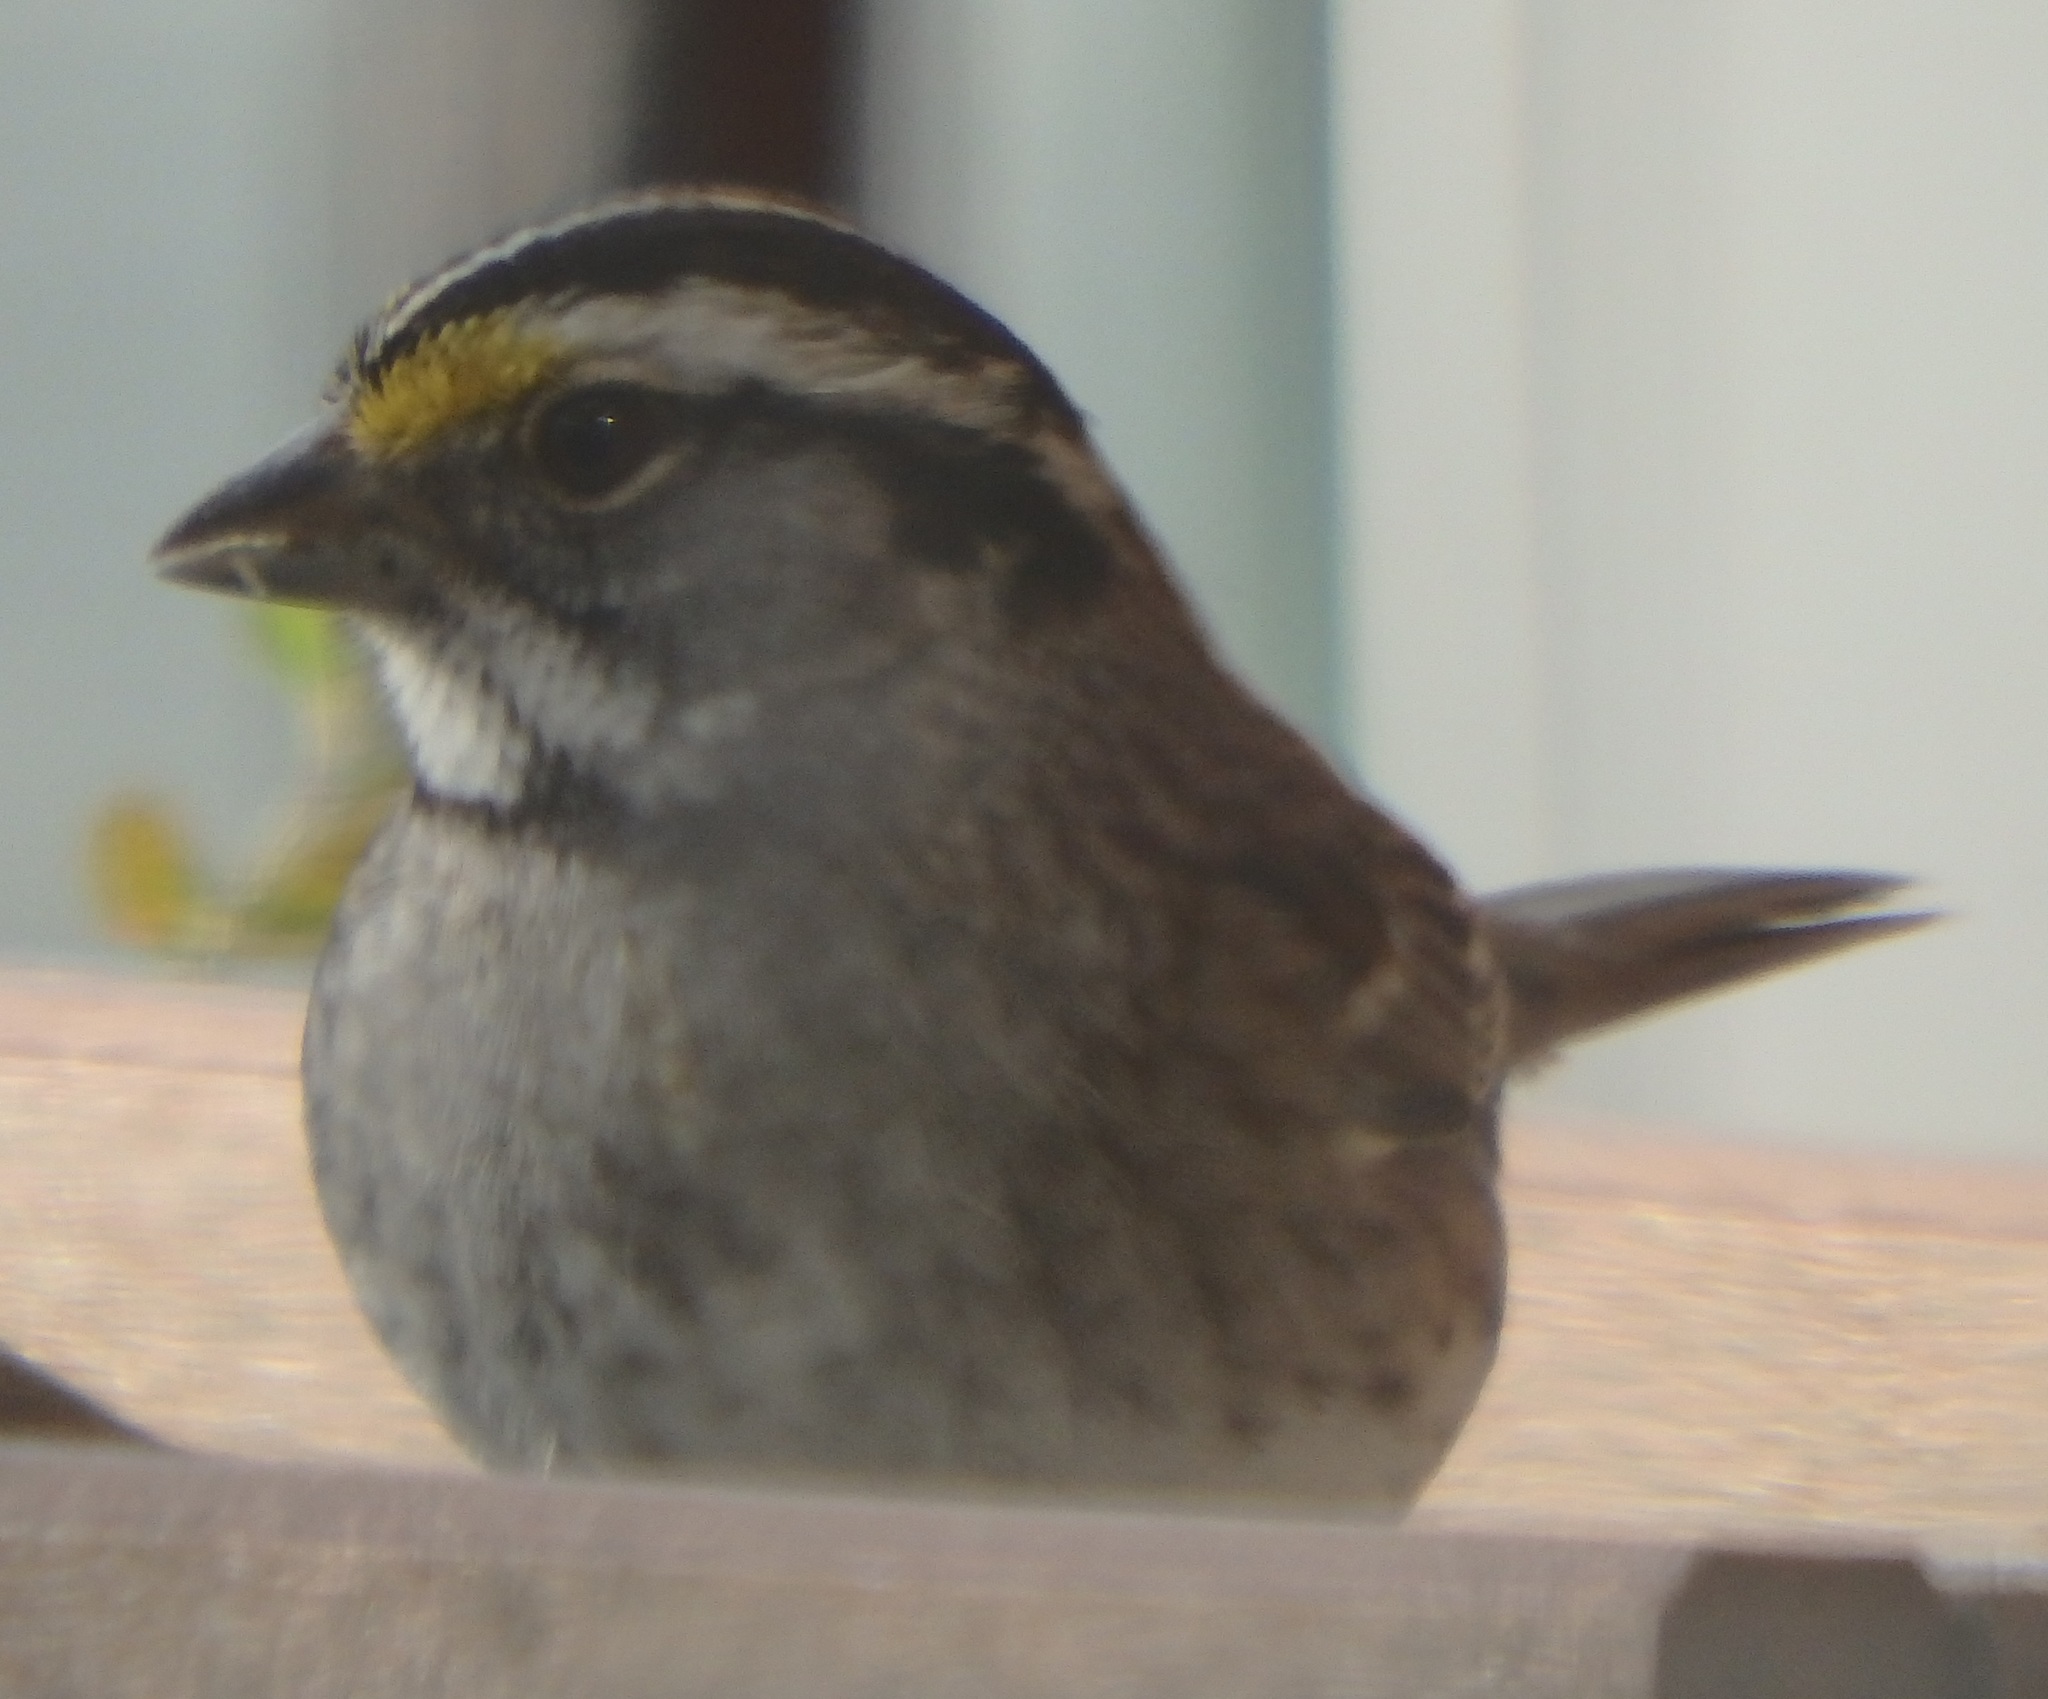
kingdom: Animalia
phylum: Chordata
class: Aves
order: Passeriformes
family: Passerellidae
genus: Zonotrichia
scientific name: Zonotrichia albicollis
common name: White-throated sparrow
